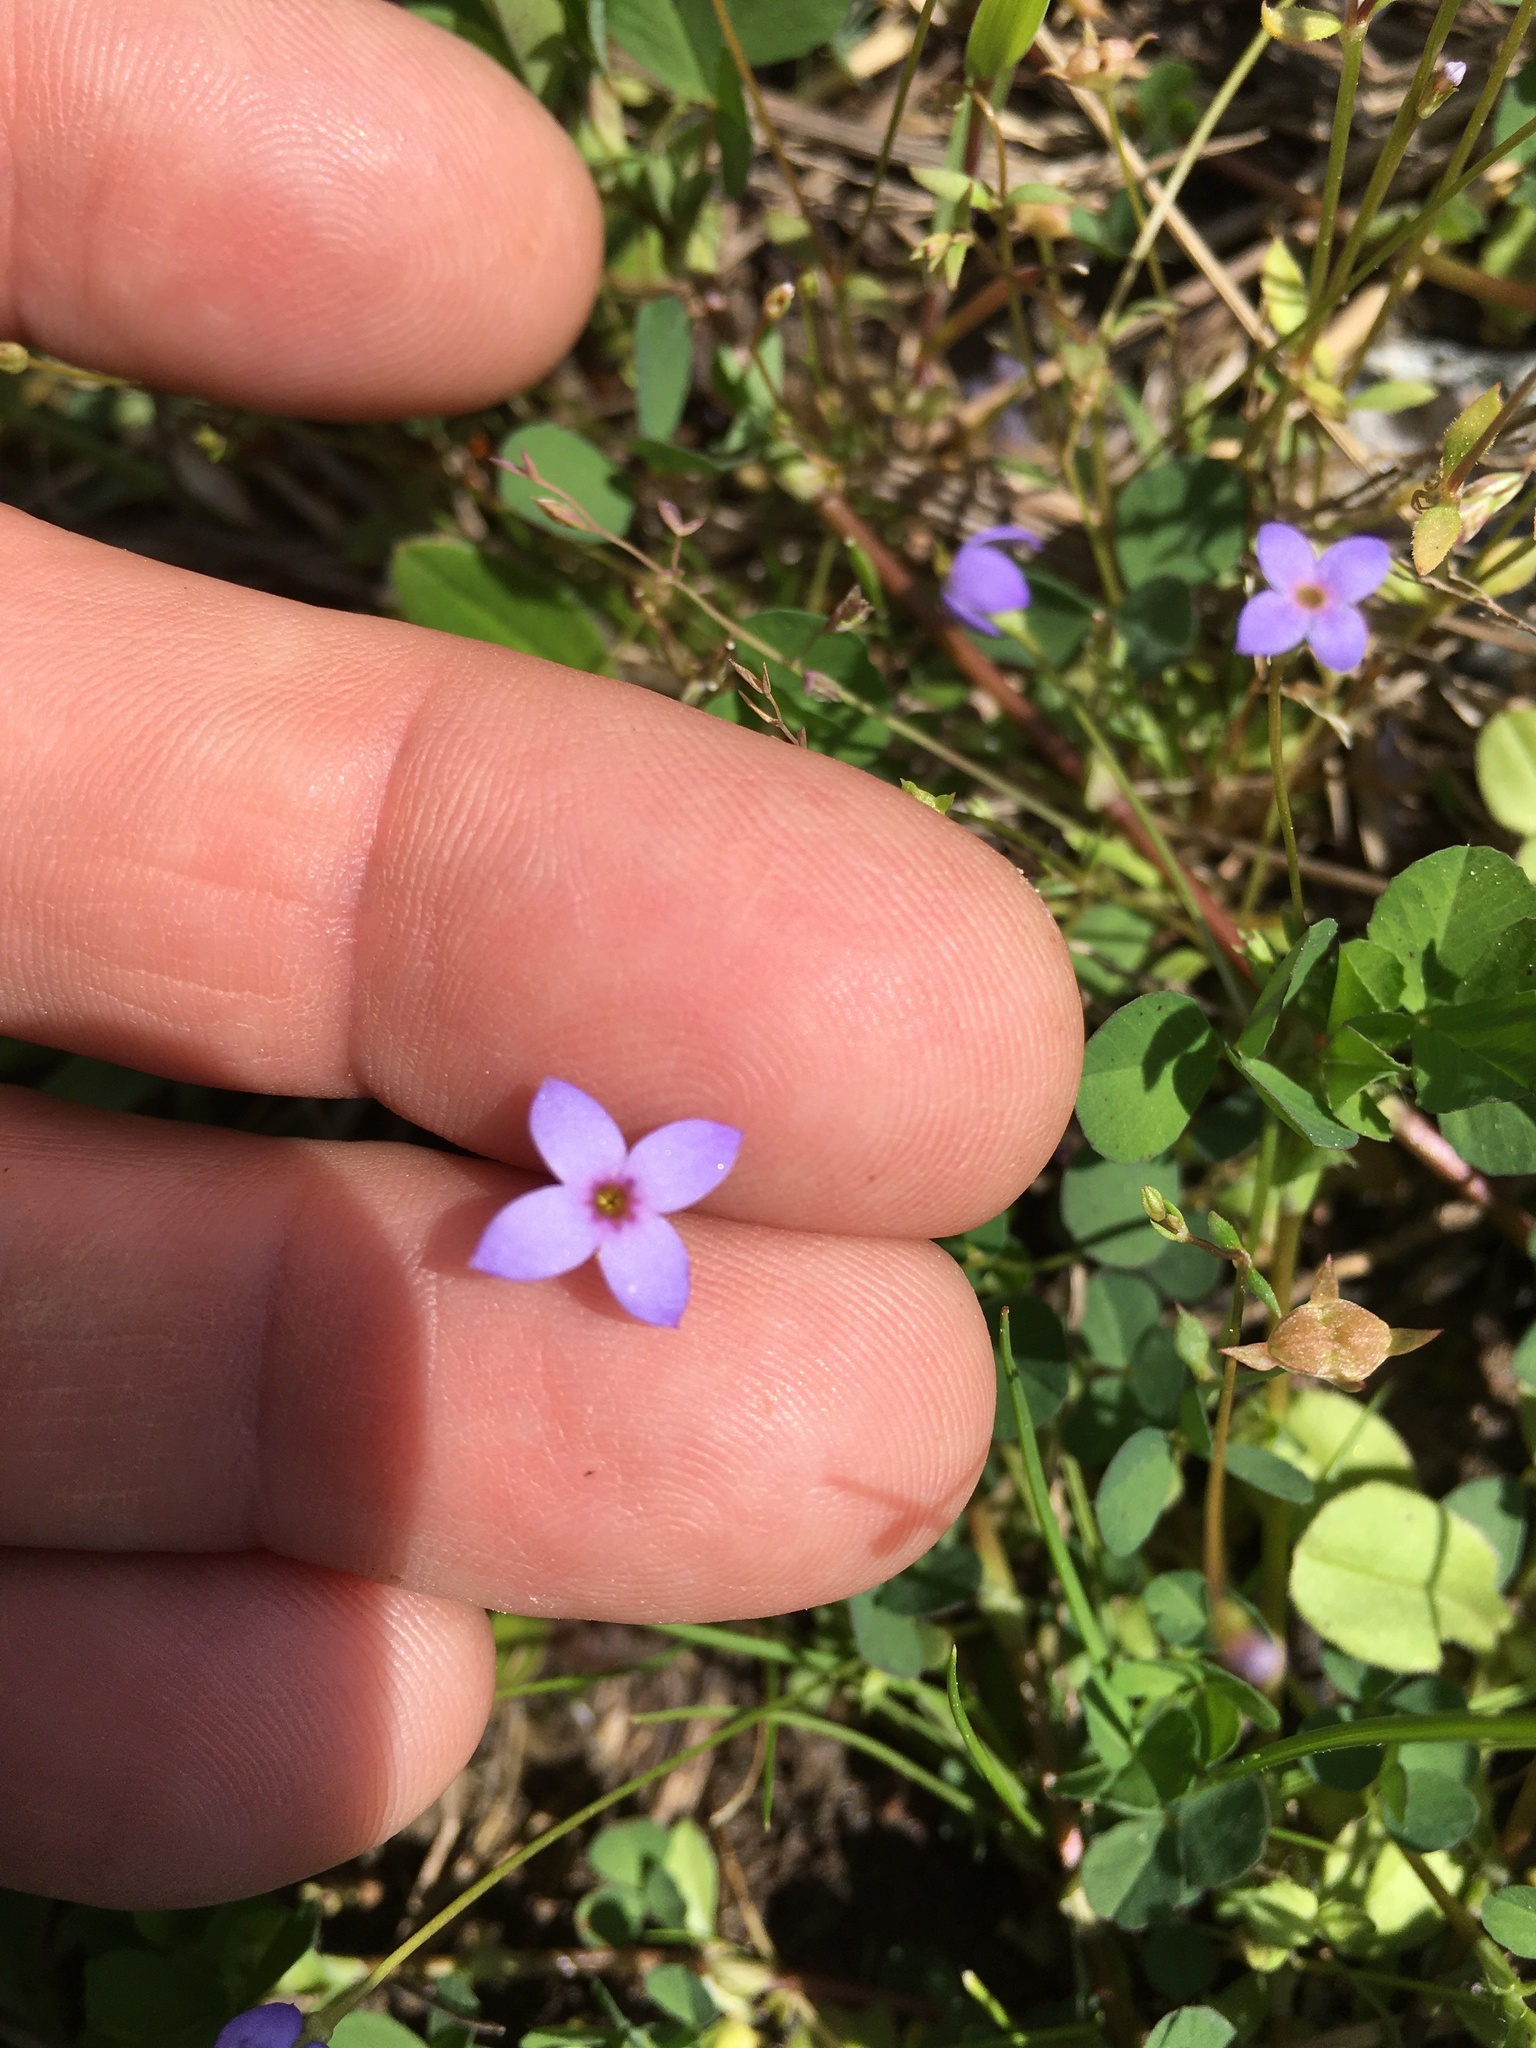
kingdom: Plantae
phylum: Tracheophyta
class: Magnoliopsida
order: Gentianales
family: Rubiaceae
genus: Houstonia
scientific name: Houstonia pusilla
